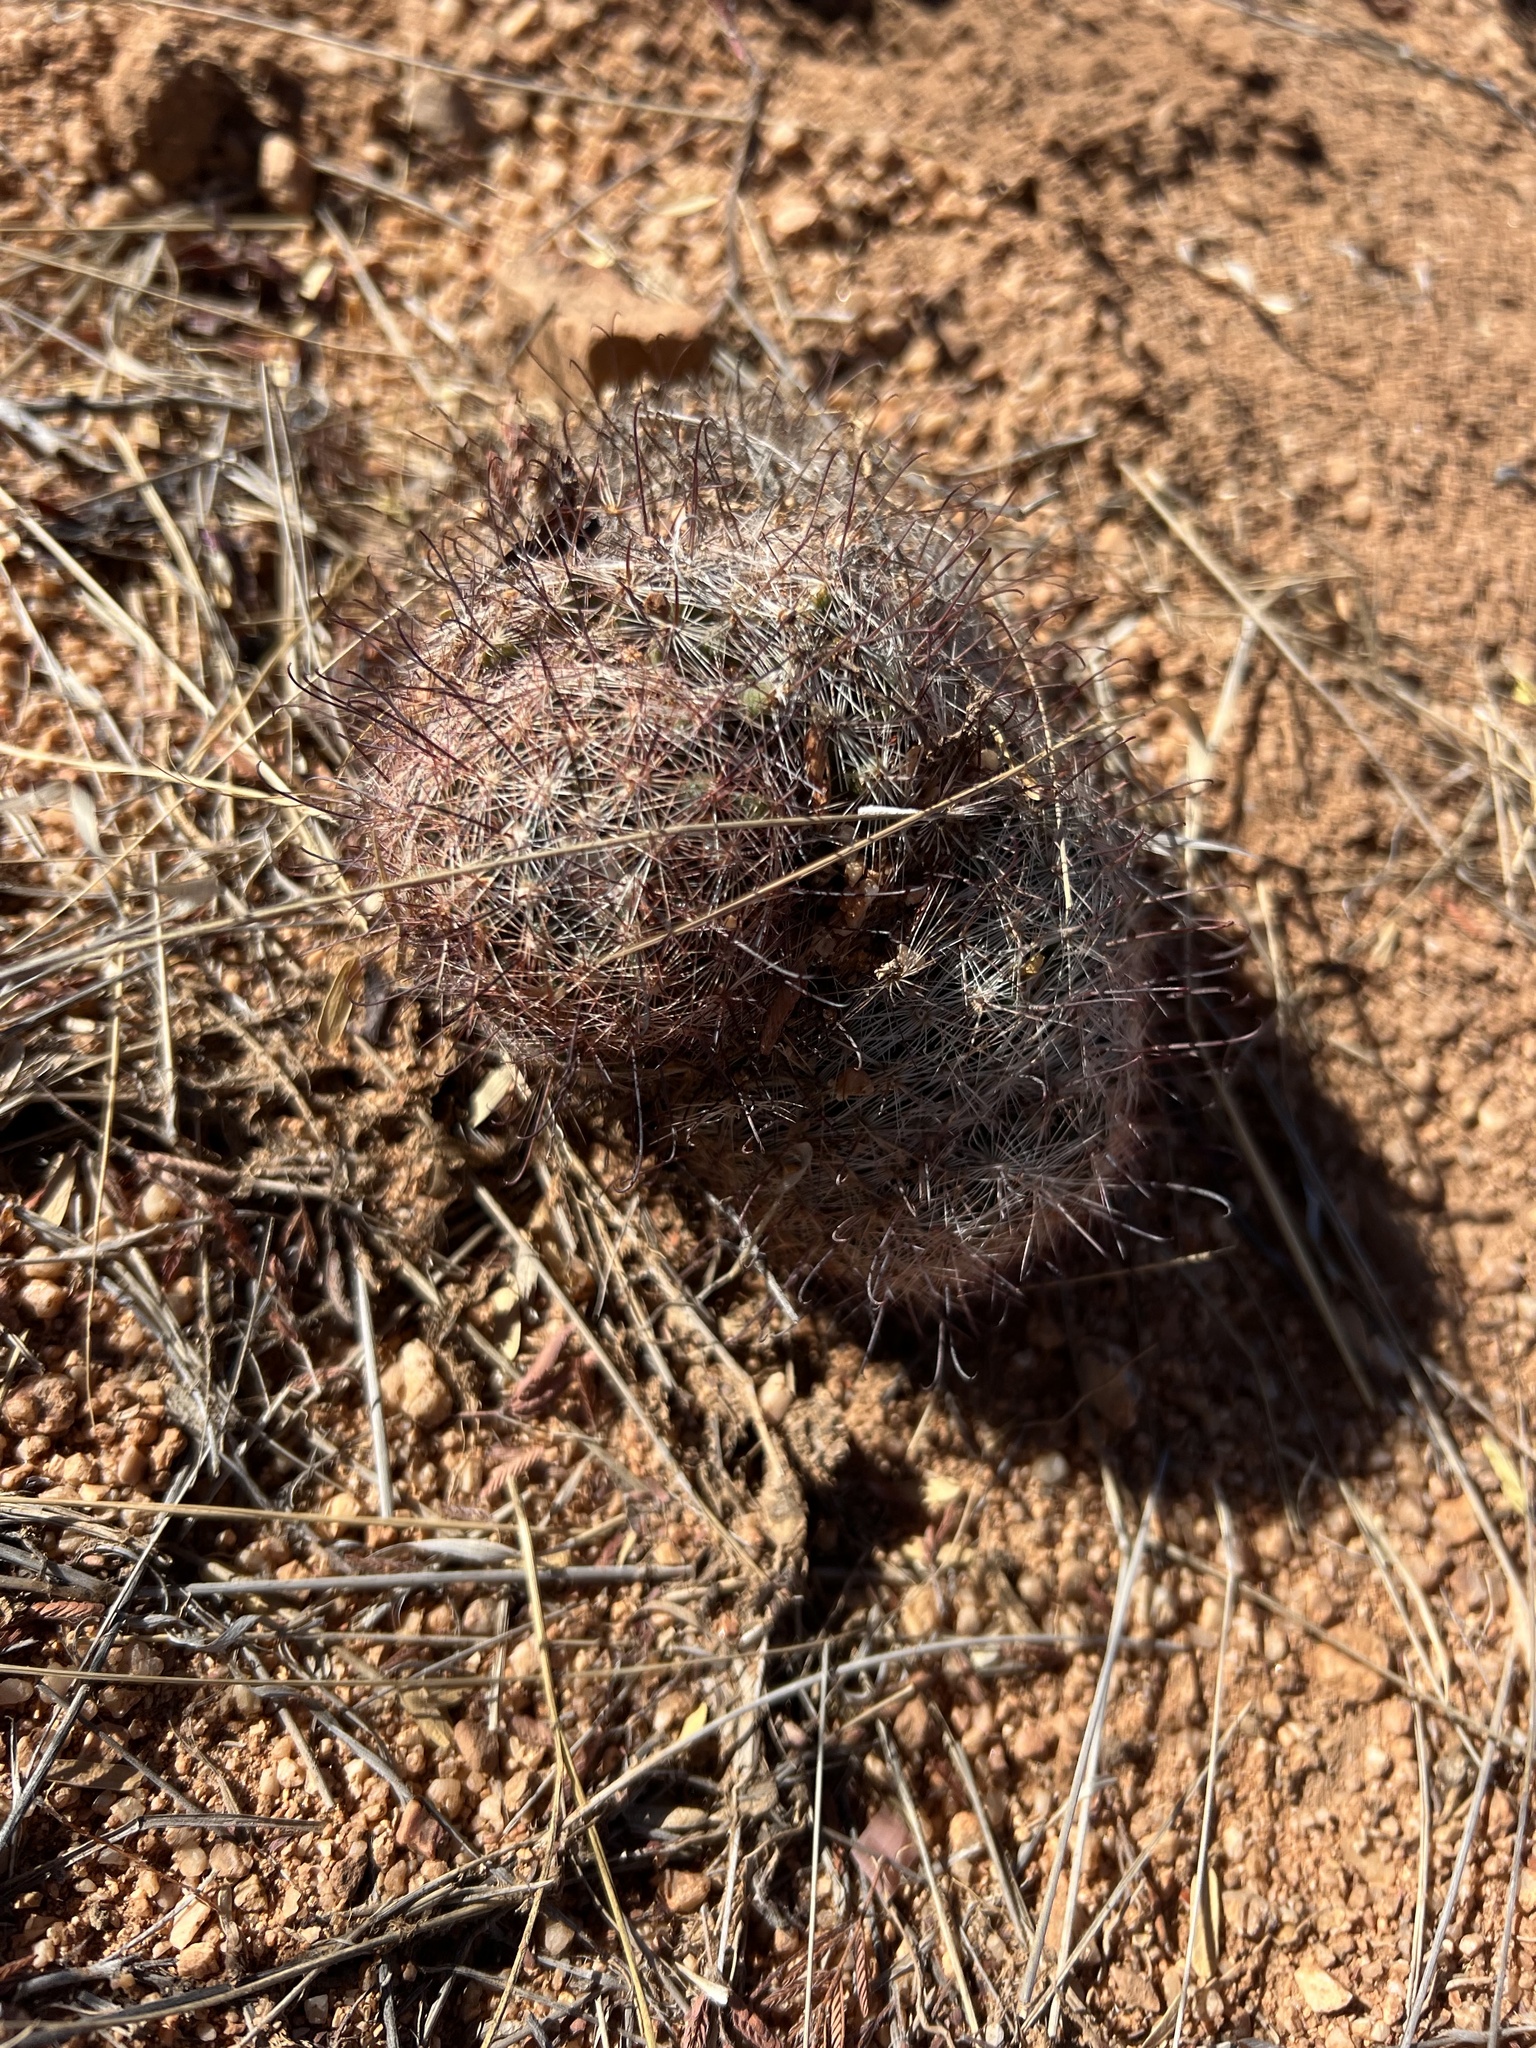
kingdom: Plantae
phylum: Tracheophyta
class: Magnoliopsida
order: Caryophyllales
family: Cactaceae
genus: Cochemiea
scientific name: Cochemiea grahamii
